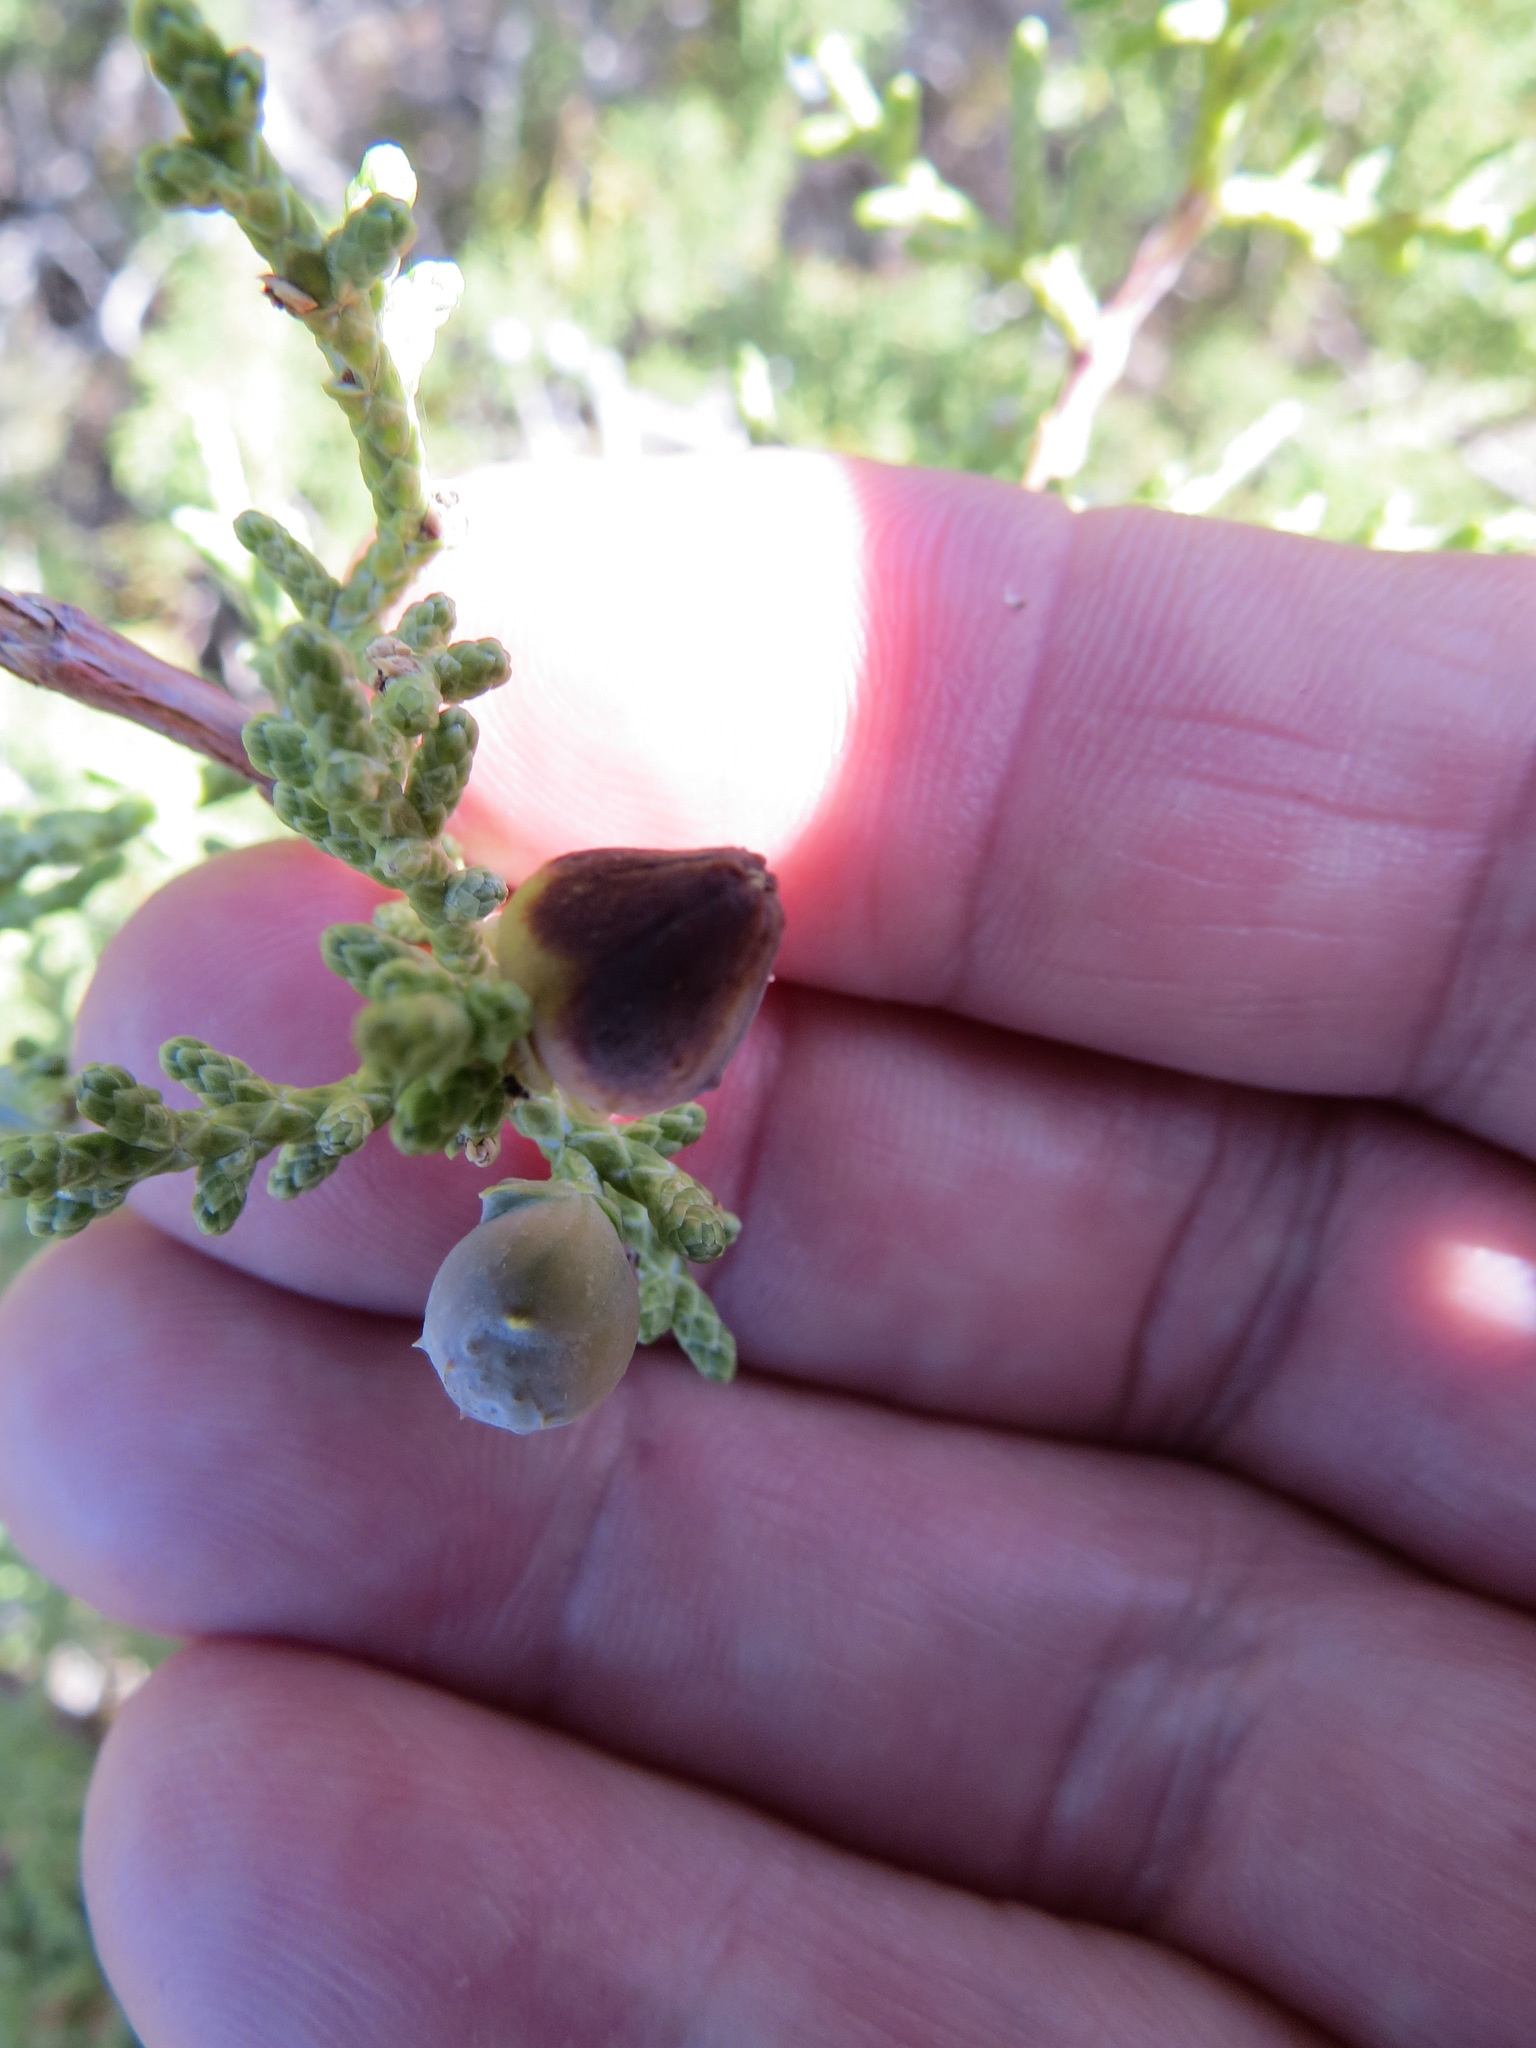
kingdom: Animalia
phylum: Arthropoda
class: Insecta
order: Diptera
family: Cecidomyiidae
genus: Walshomyia
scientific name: Walshomyia juniperina
